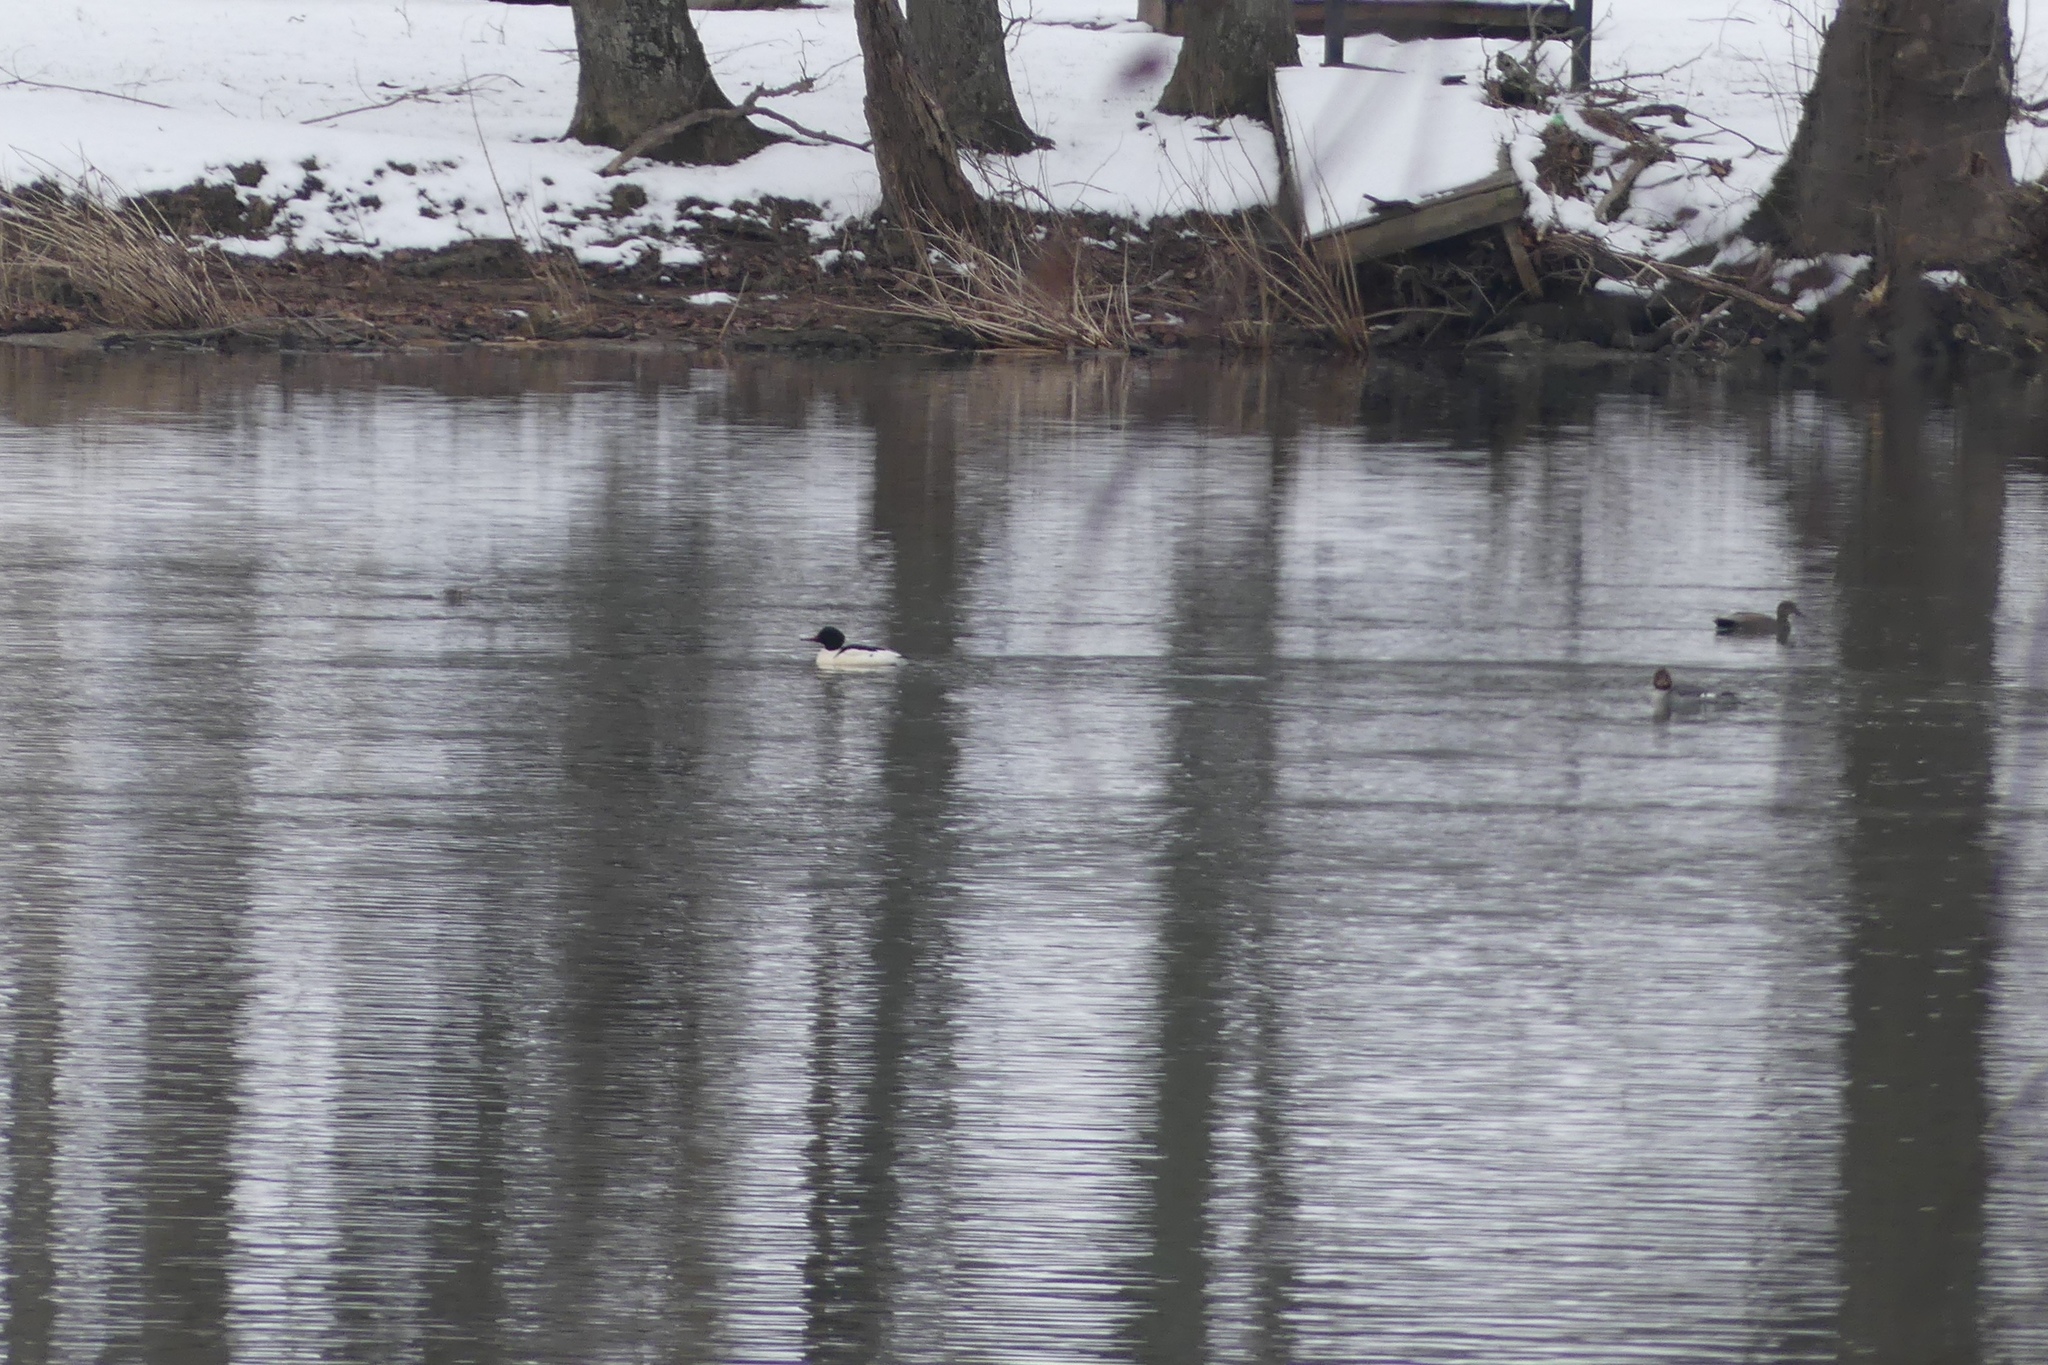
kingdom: Animalia
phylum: Chordata
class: Aves
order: Anseriformes
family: Anatidae
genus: Mergus
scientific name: Mergus merganser
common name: Common merganser
